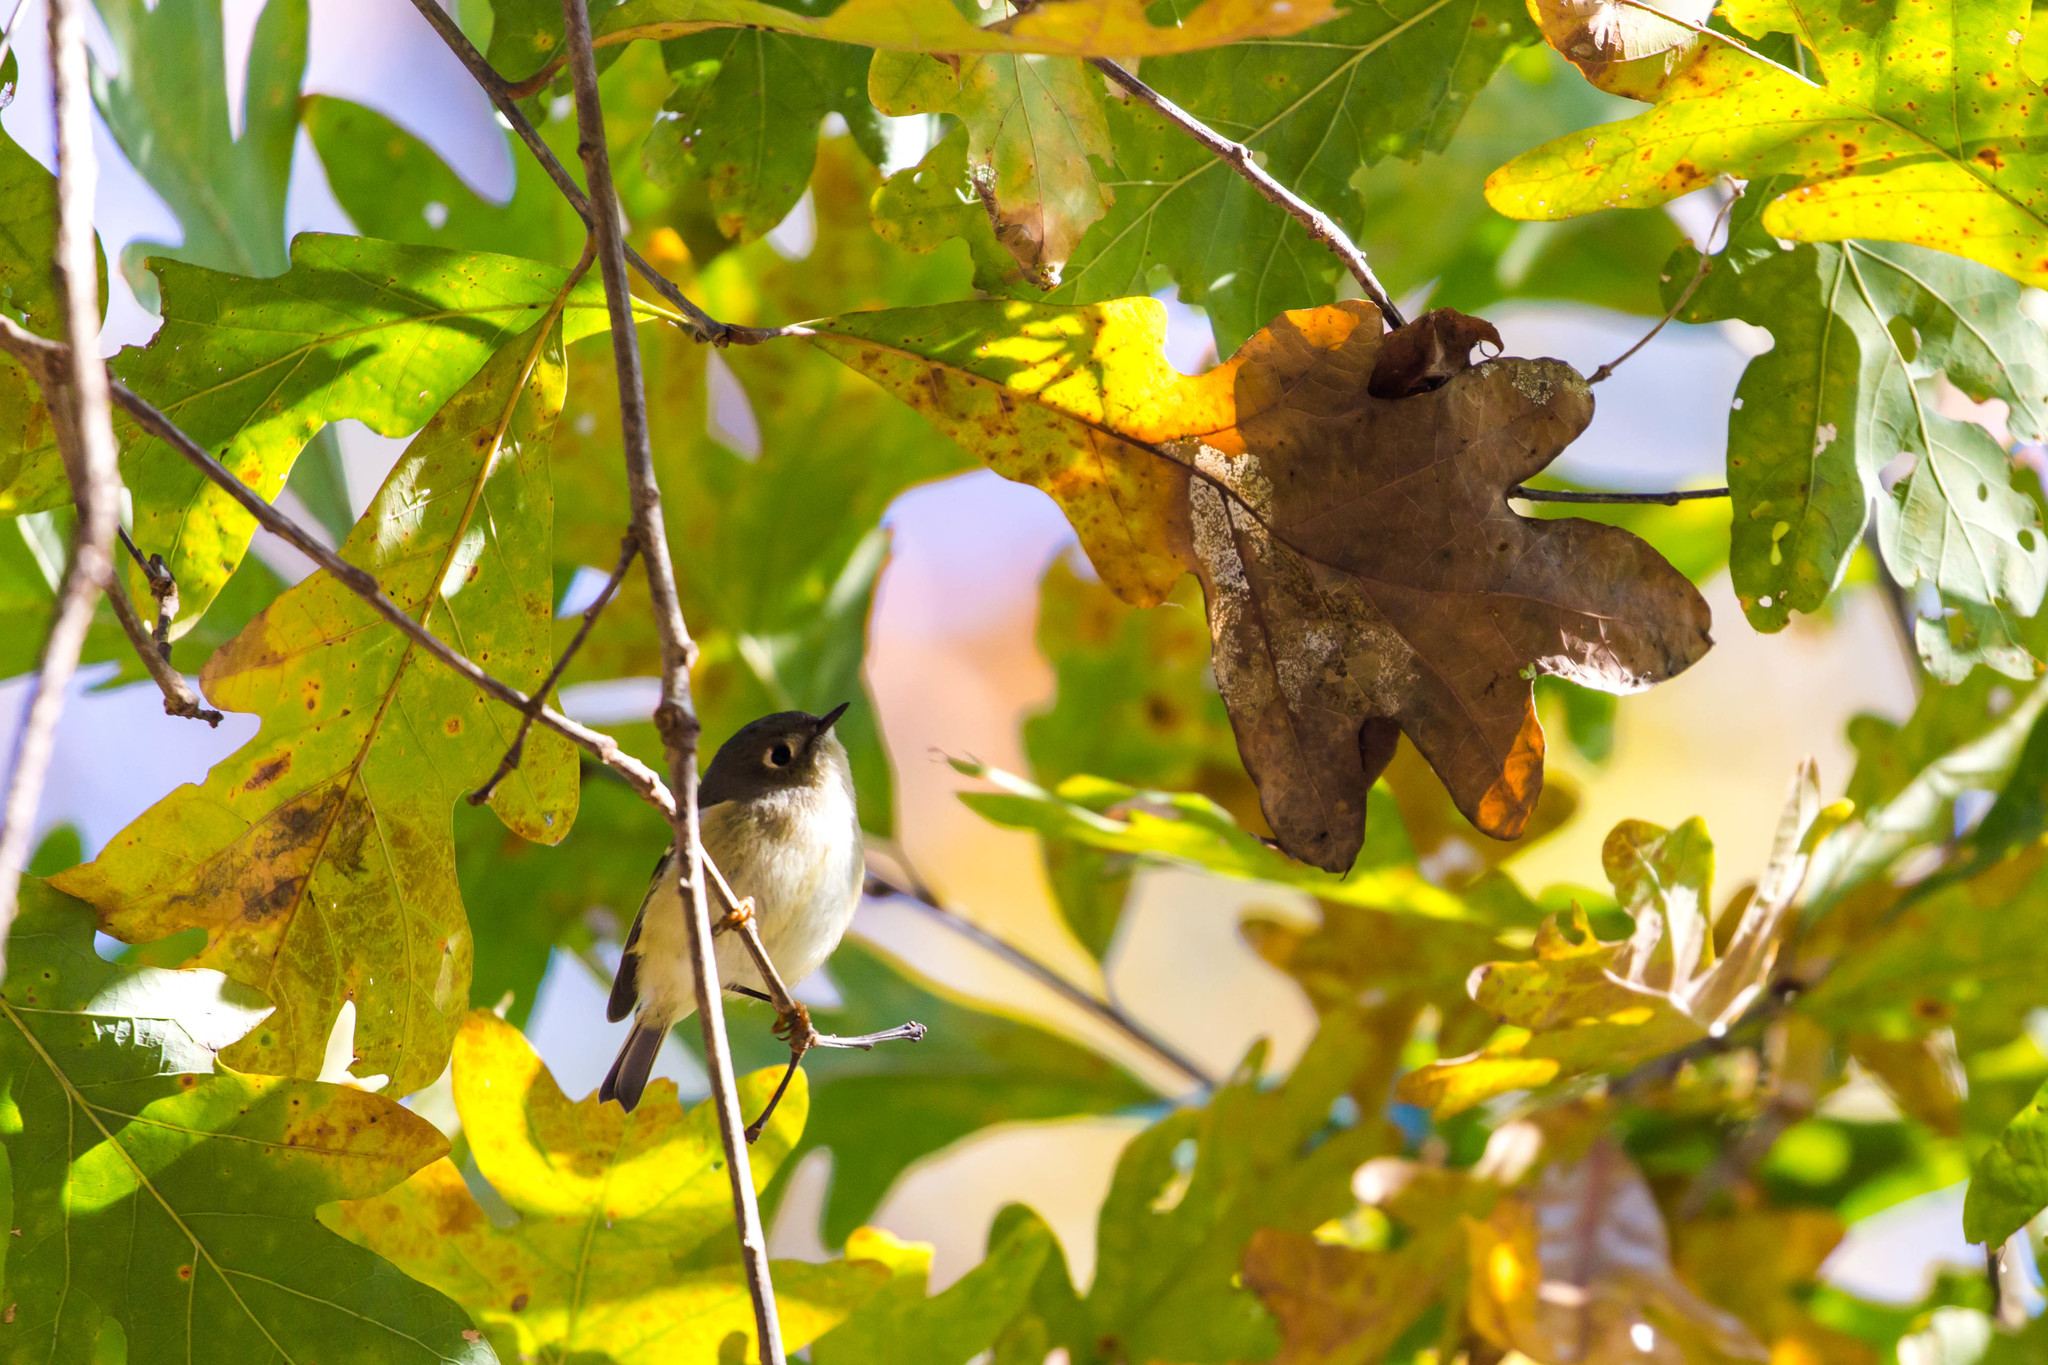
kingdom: Animalia
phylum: Chordata
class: Aves
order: Passeriformes
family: Regulidae
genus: Regulus
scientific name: Regulus calendula
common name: Ruby-crowned kinglet
